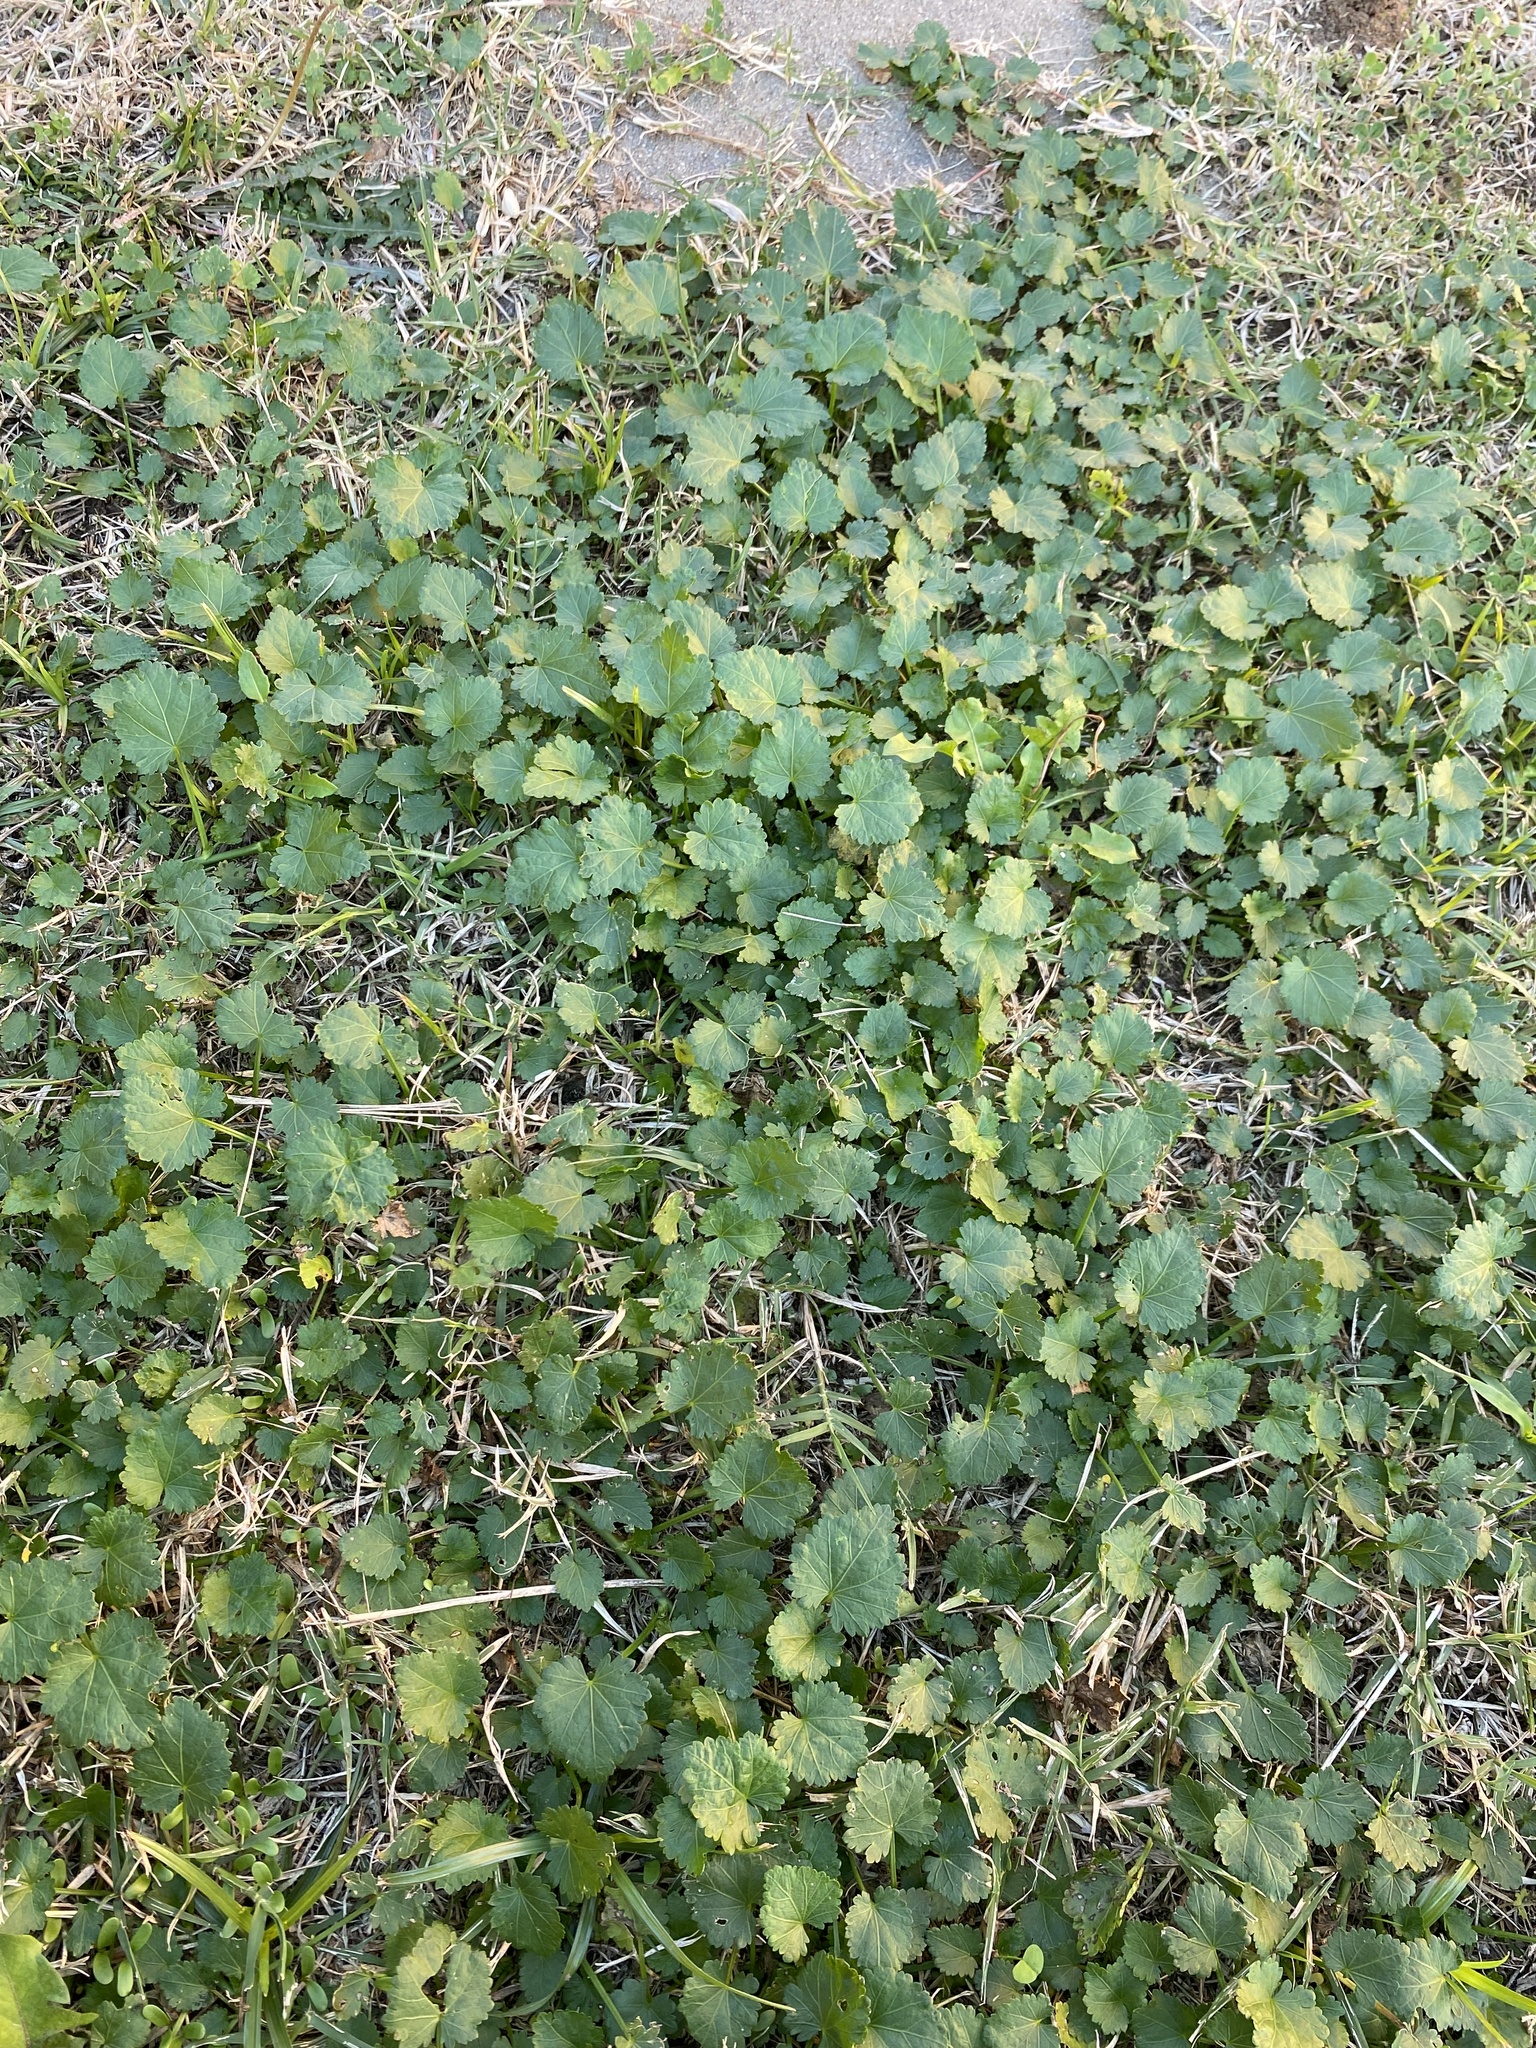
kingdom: Plantae
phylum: Tracheophyta
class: Magnoliopsida
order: Malvales
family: Malvaceae
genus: Modiola
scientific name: Modiola caroliniana
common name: Carolina bristlemallow
